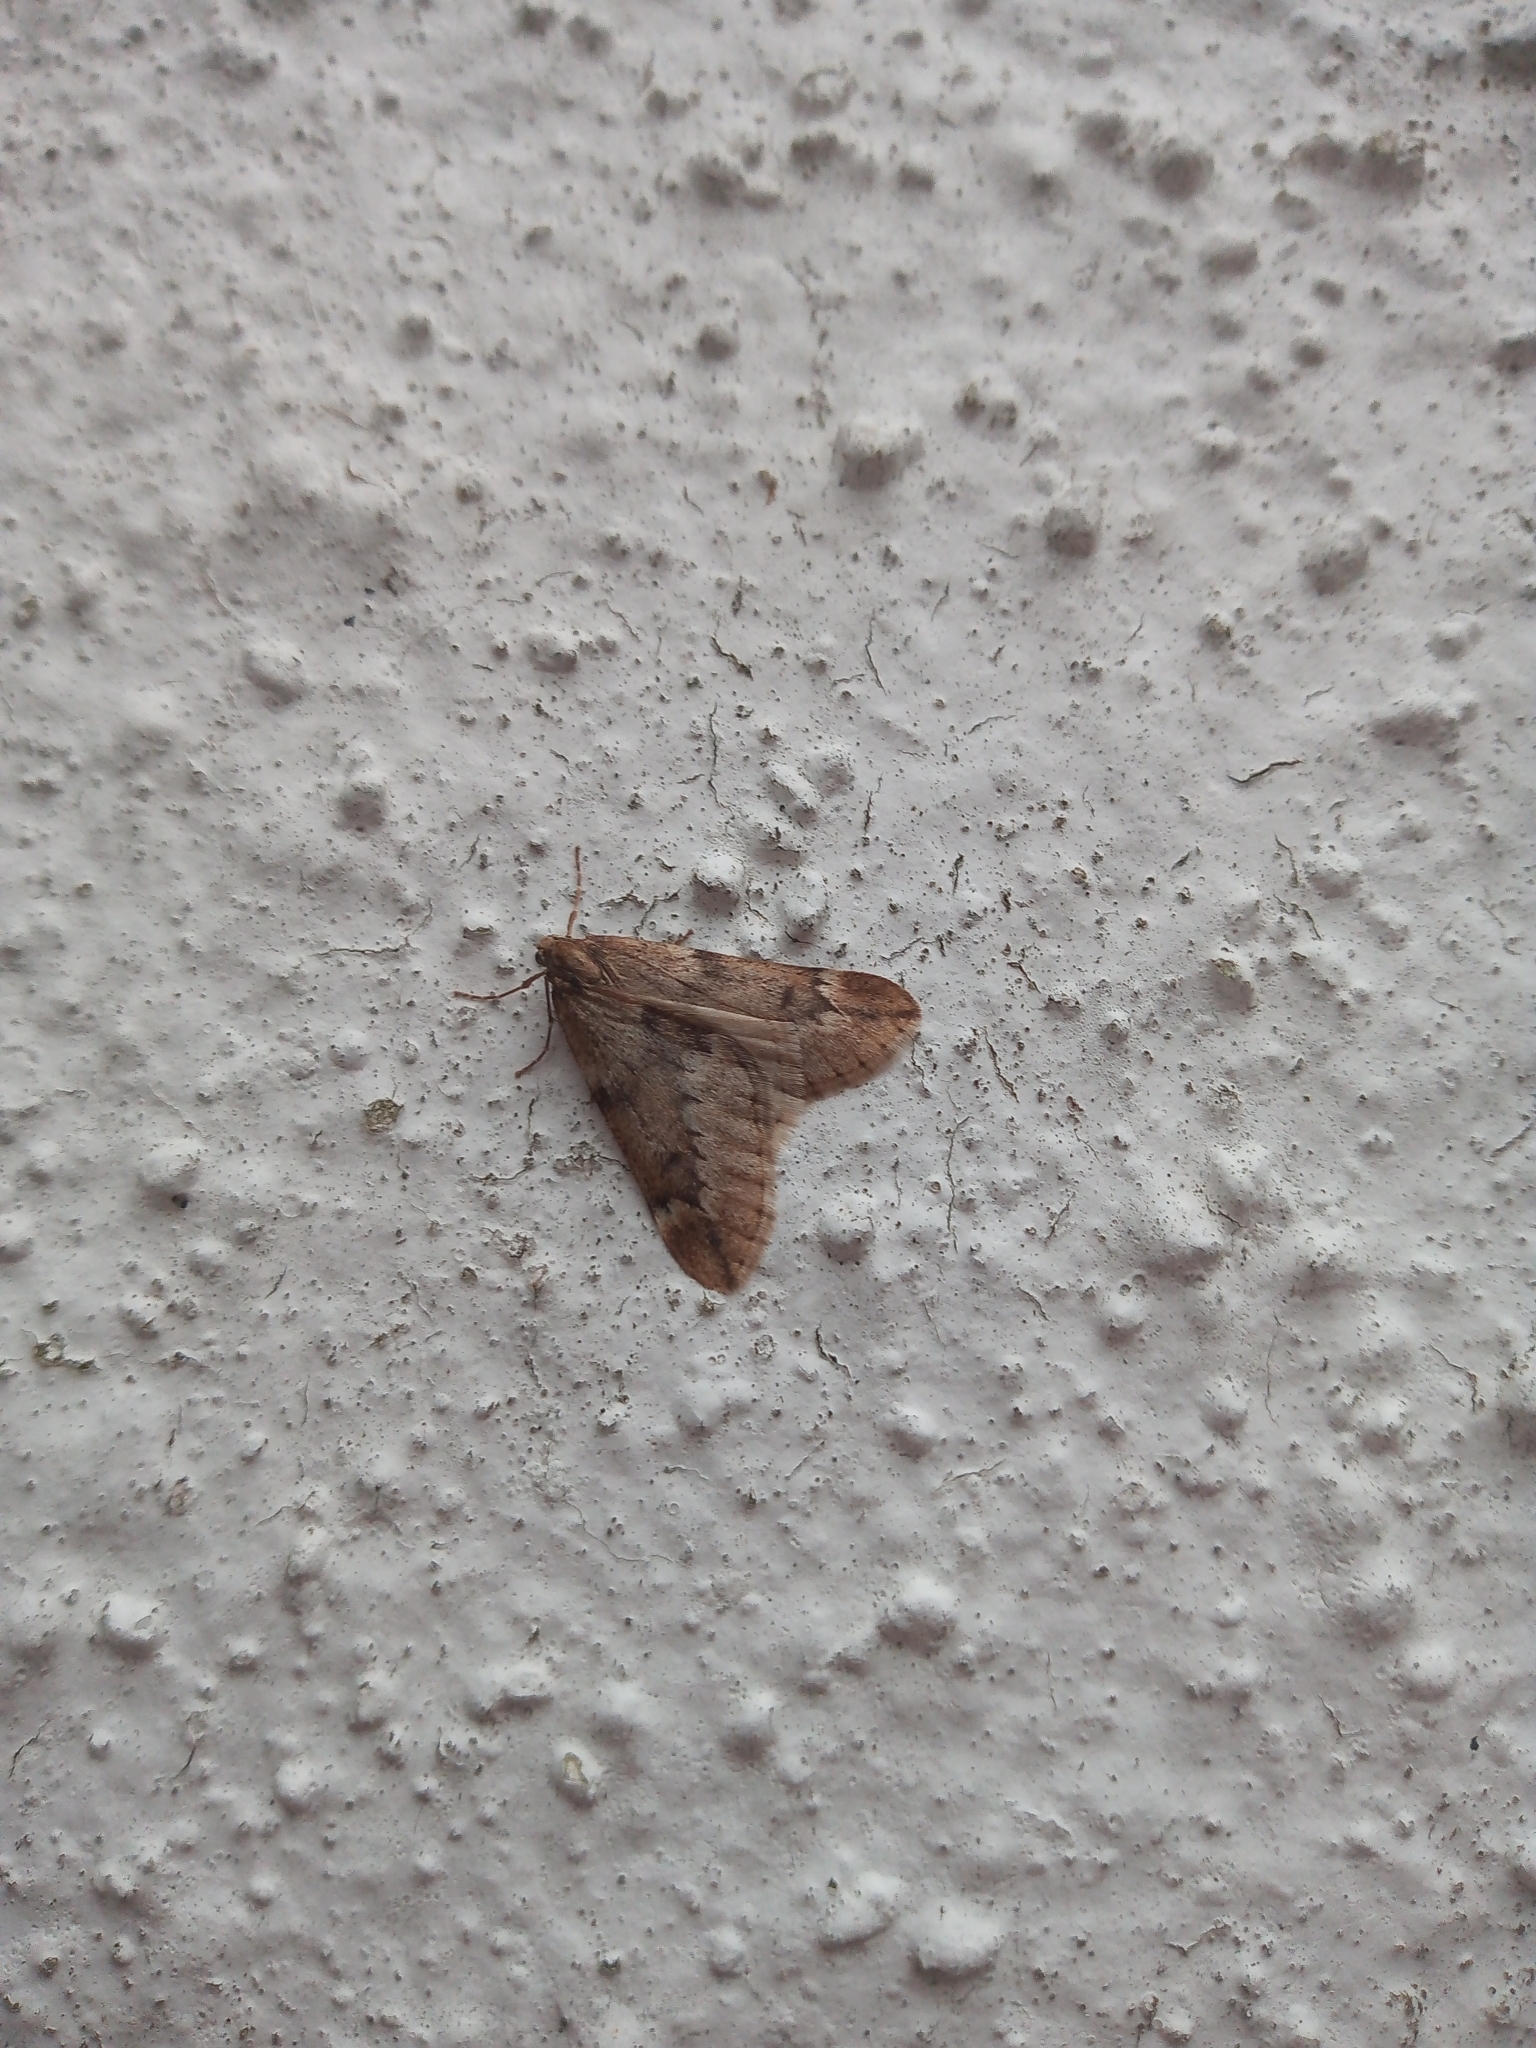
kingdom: Animalia
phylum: Arthropoda
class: Insecta
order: Lepidoptera
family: Geometridae
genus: Alsophila
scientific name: Alsophila aescularia
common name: March moth
